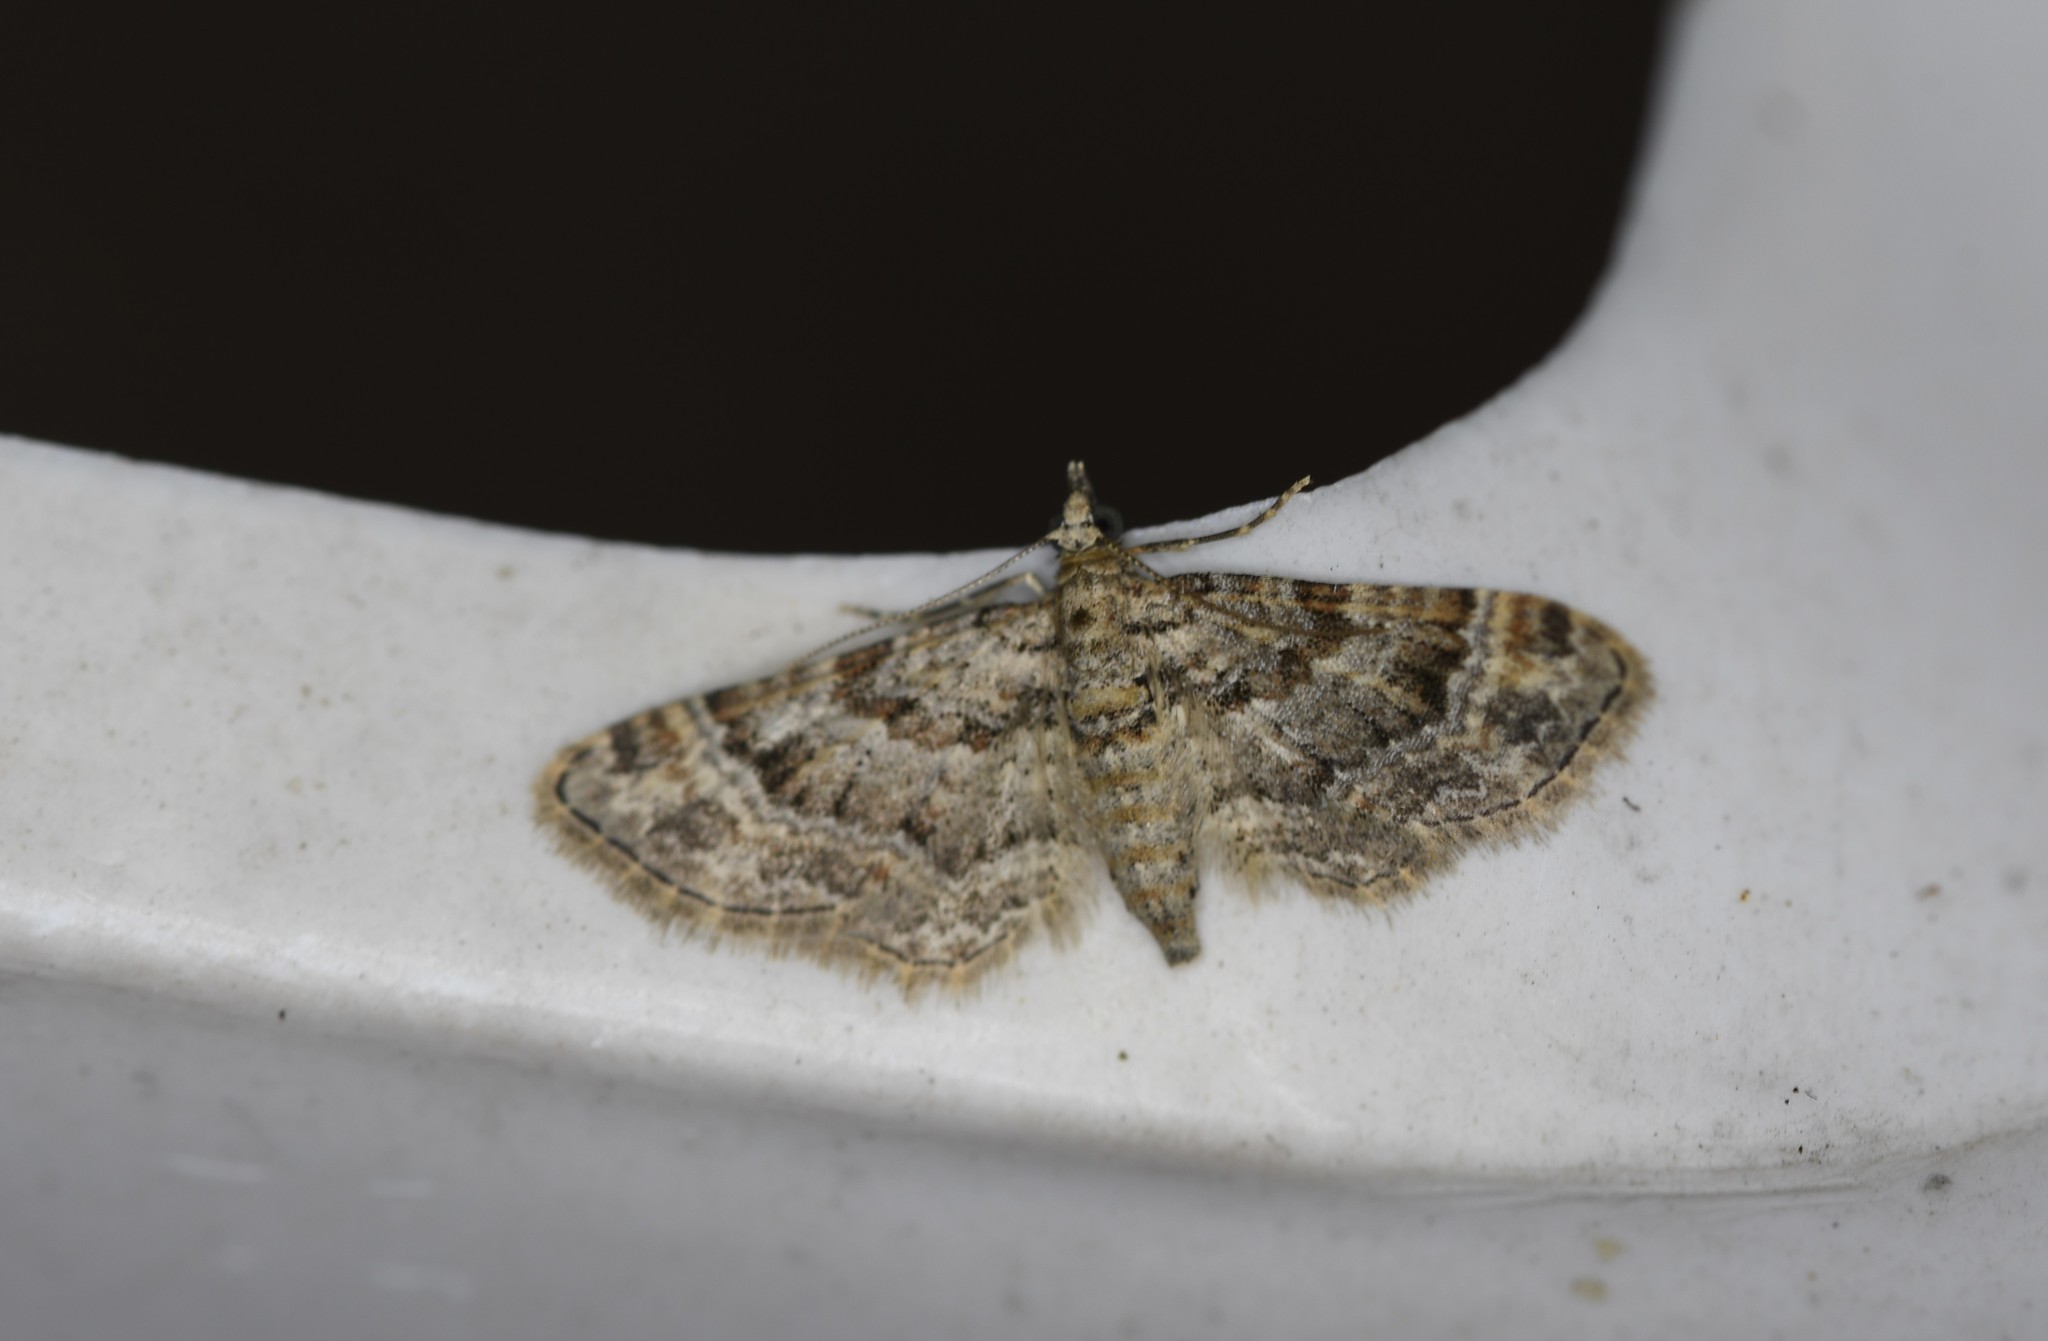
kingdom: Animalia
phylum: Arthropoda
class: Insecta
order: Lepidoptera
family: Geometridae
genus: Gymnoscelis
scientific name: Gymnoscelis rufifasciata
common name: Double-striped pug
